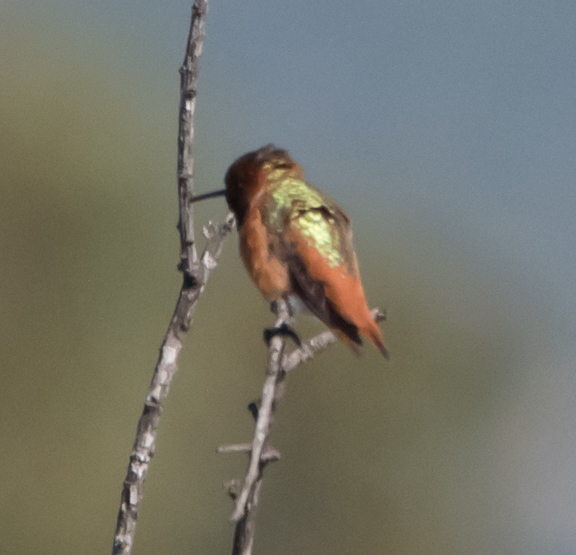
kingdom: Animalia
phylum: Chordata
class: Aves
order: Apodiformes
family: Trochilidae
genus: Selasphorus
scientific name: Selasphorus sasin
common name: Allen's hummingbird
